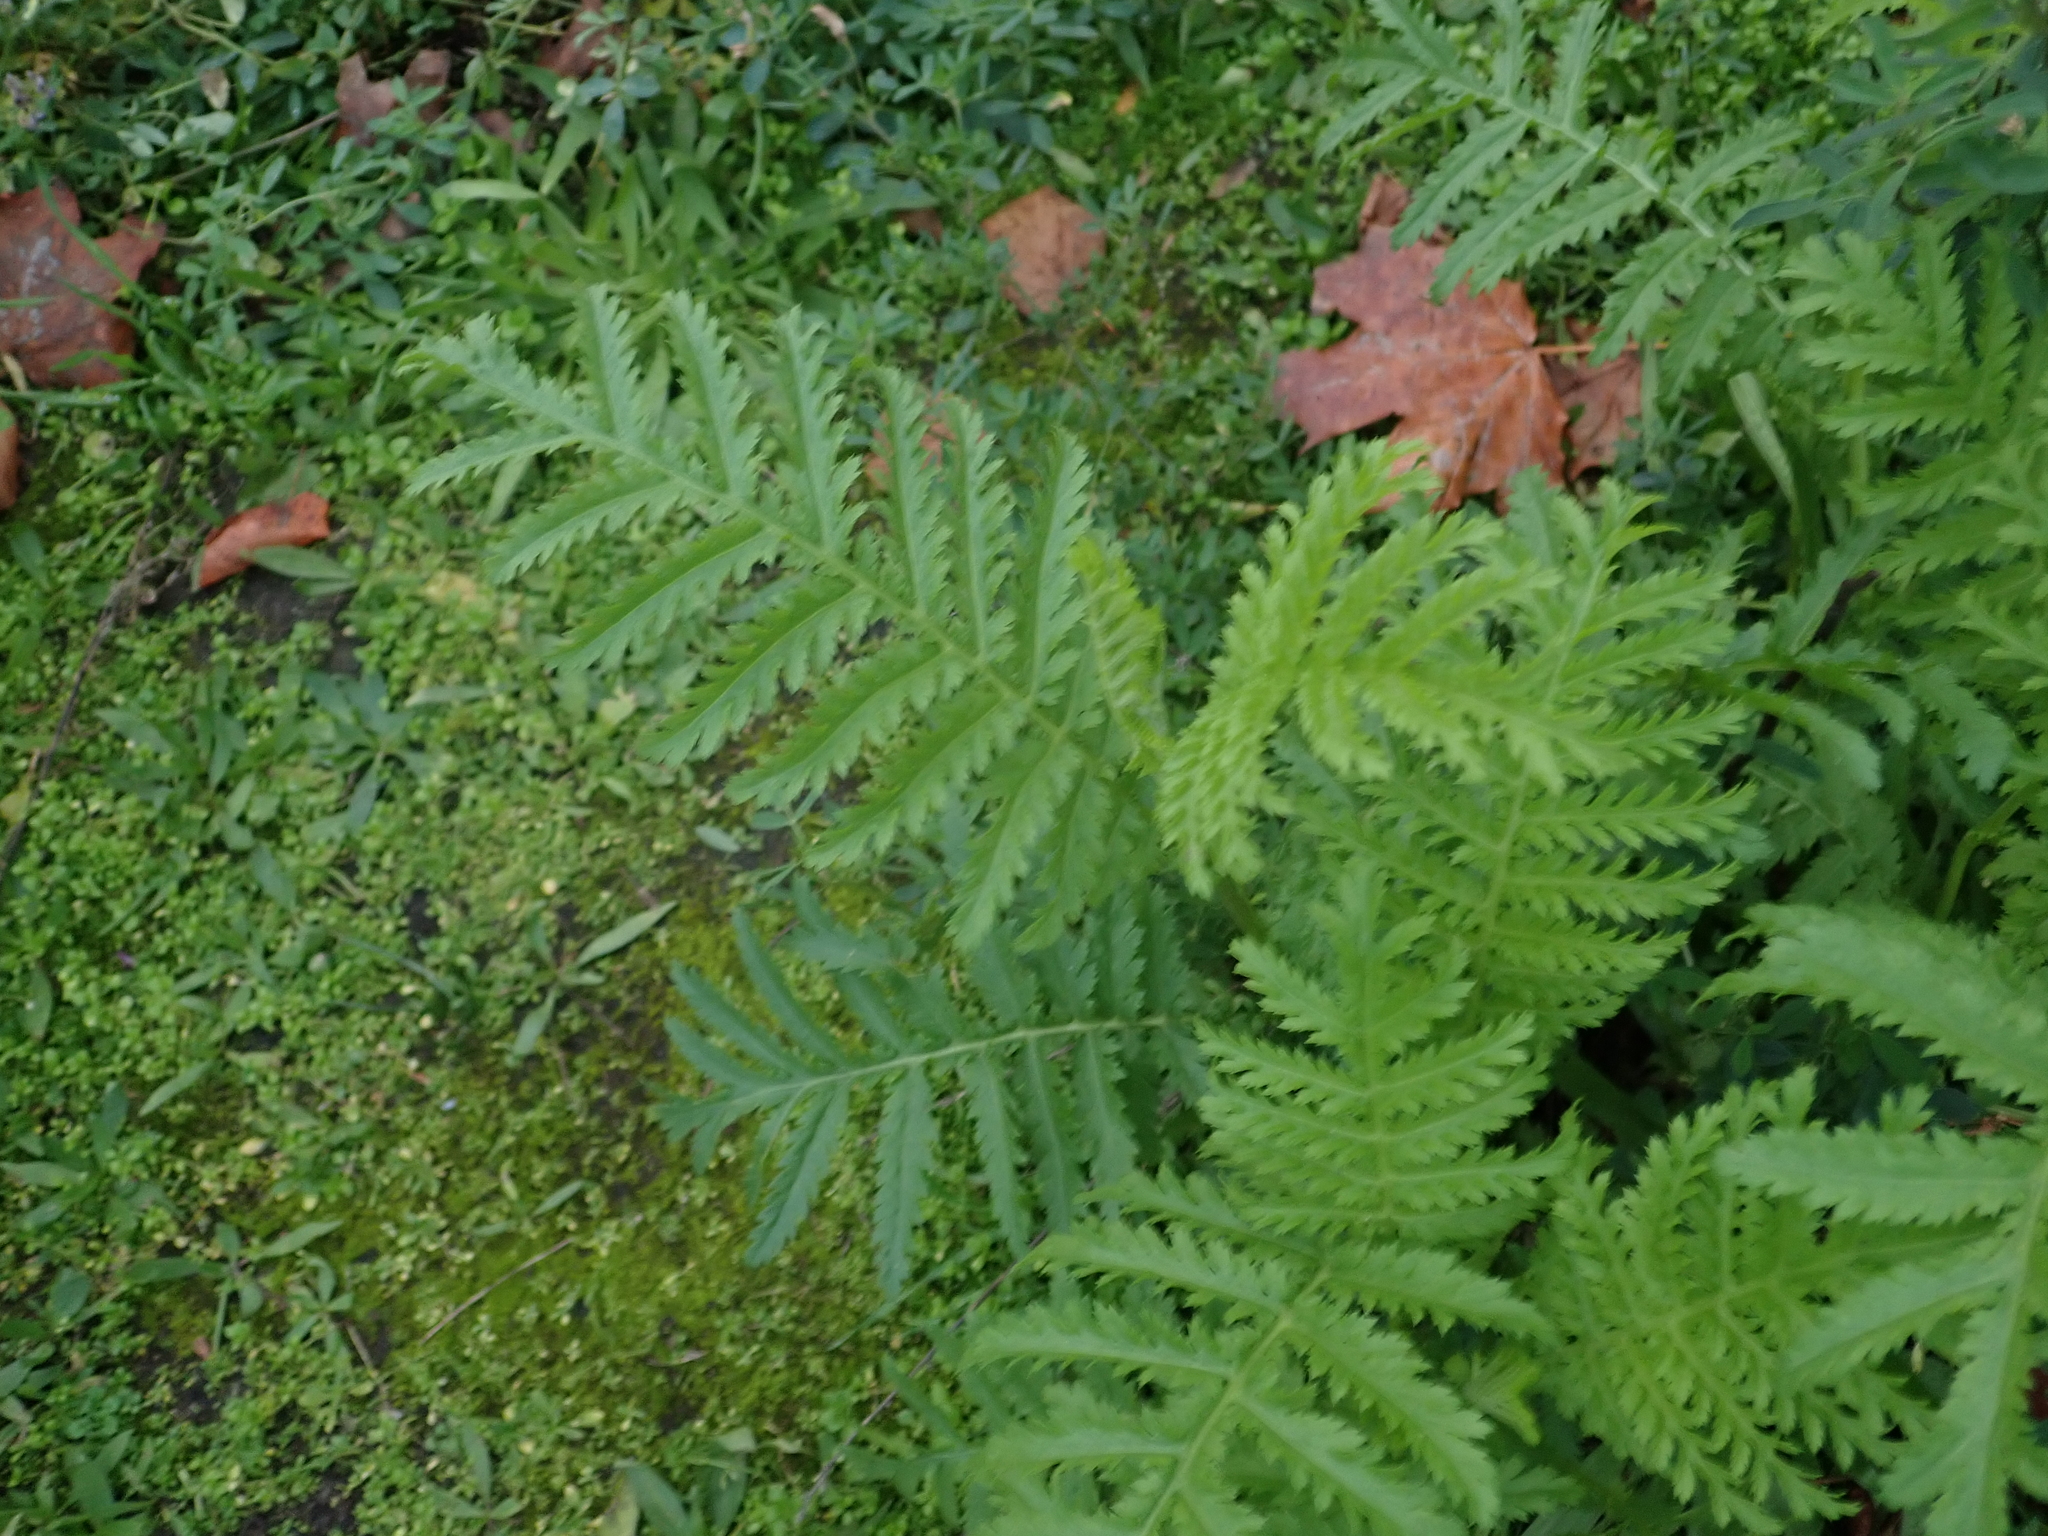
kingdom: Plantae
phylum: Tracheophyta
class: Magnoliopsida
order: Asterales
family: Asteraceae
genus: Tanacetum
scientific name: Tanacetum vulgare
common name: Common tansy
